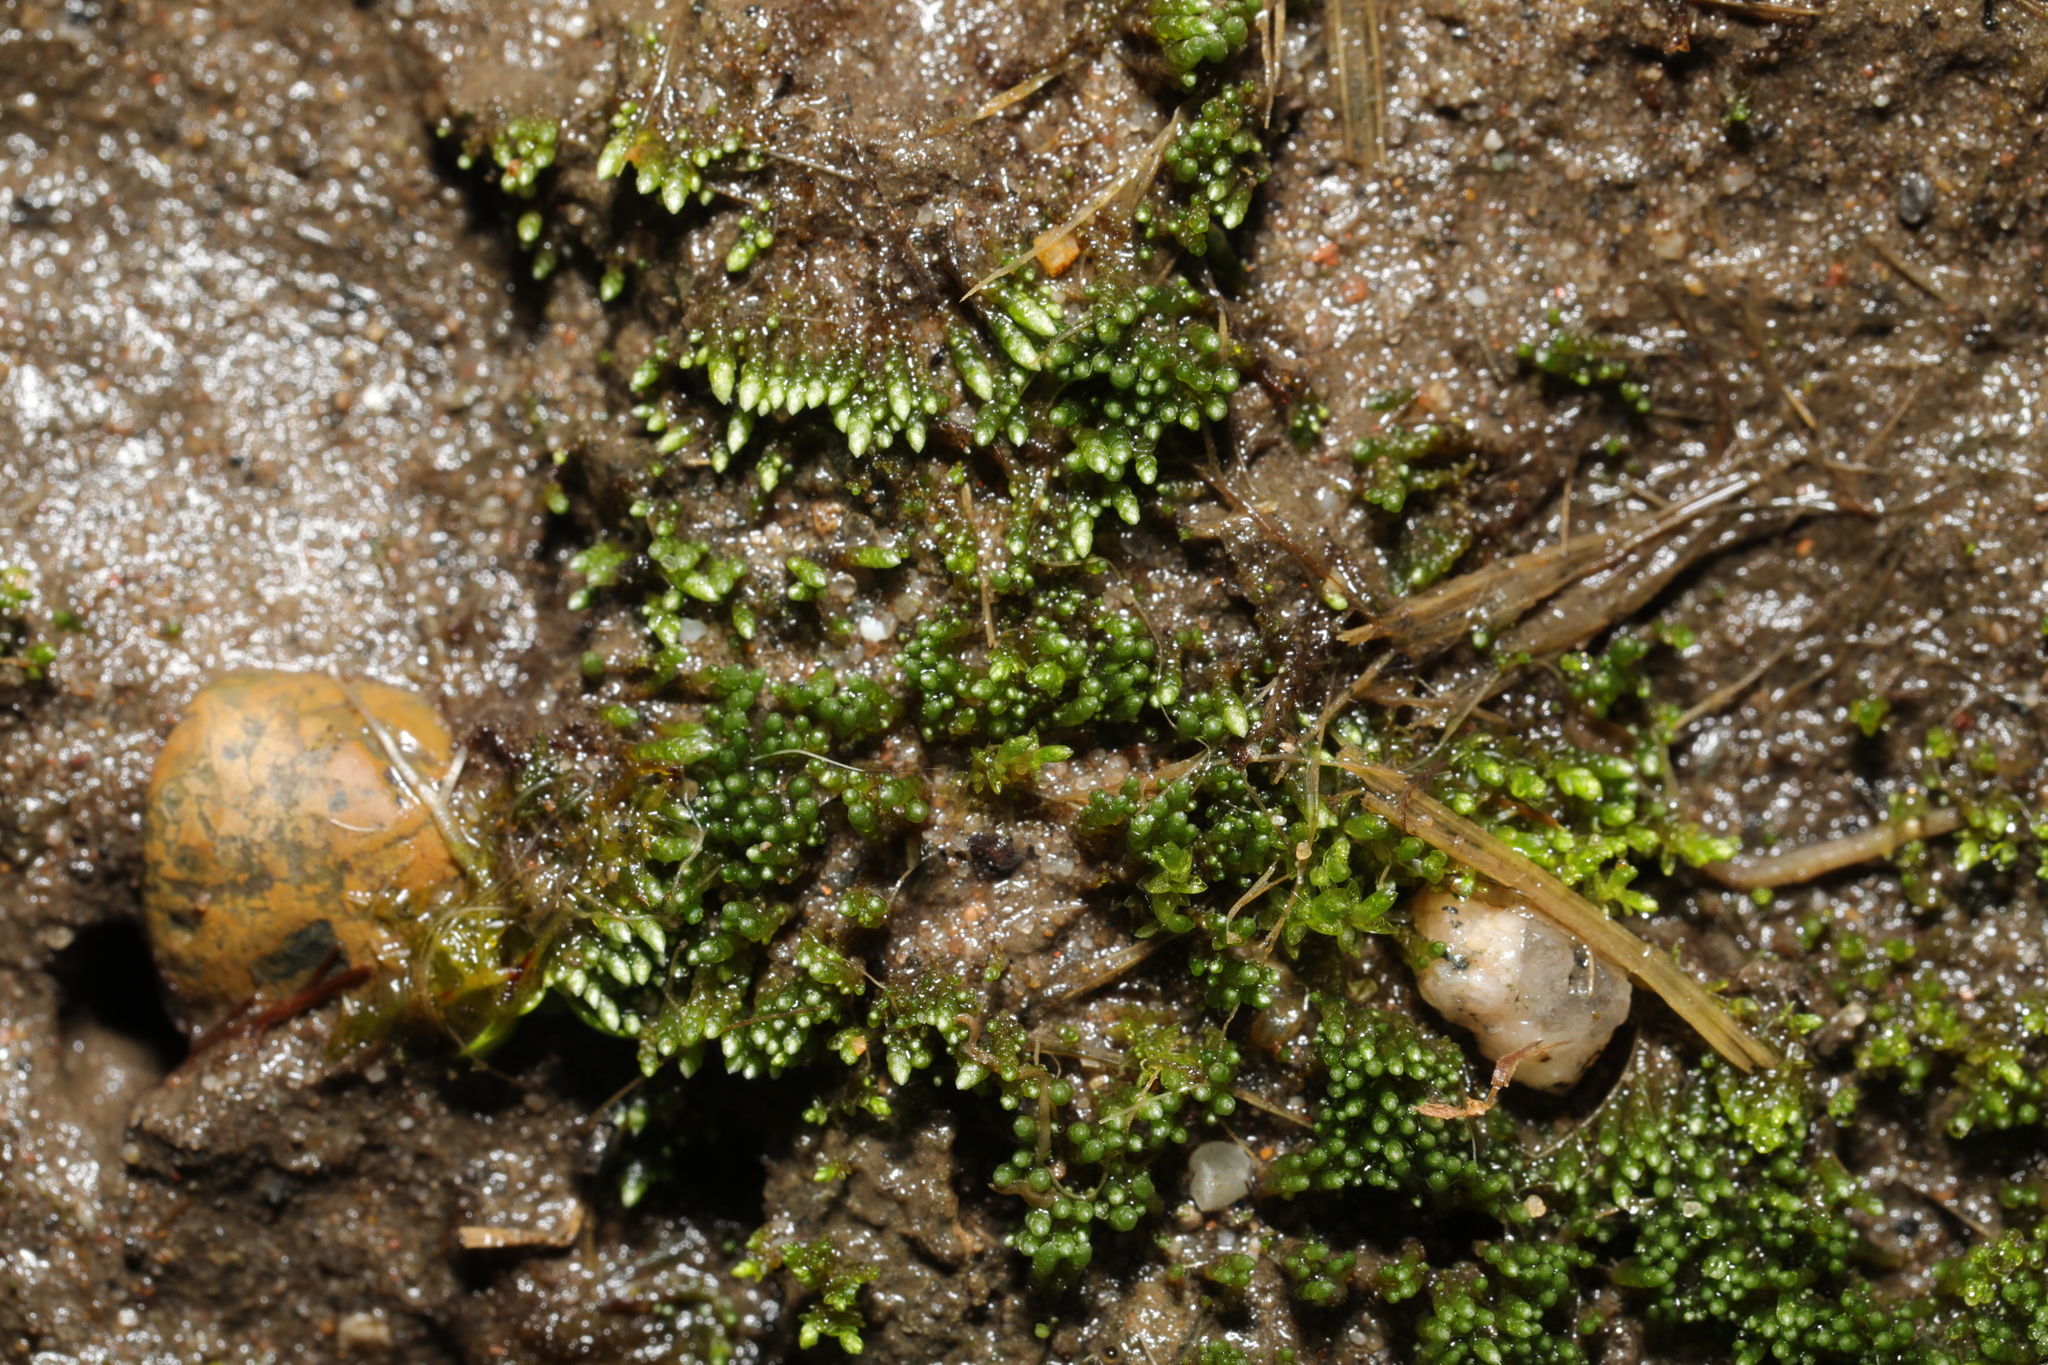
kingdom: Plantae
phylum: Bryophyta
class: Bryopsida
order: Bryales
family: Bryaceae
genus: Bryum
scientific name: Bryum argenteum
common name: Silver-moss
